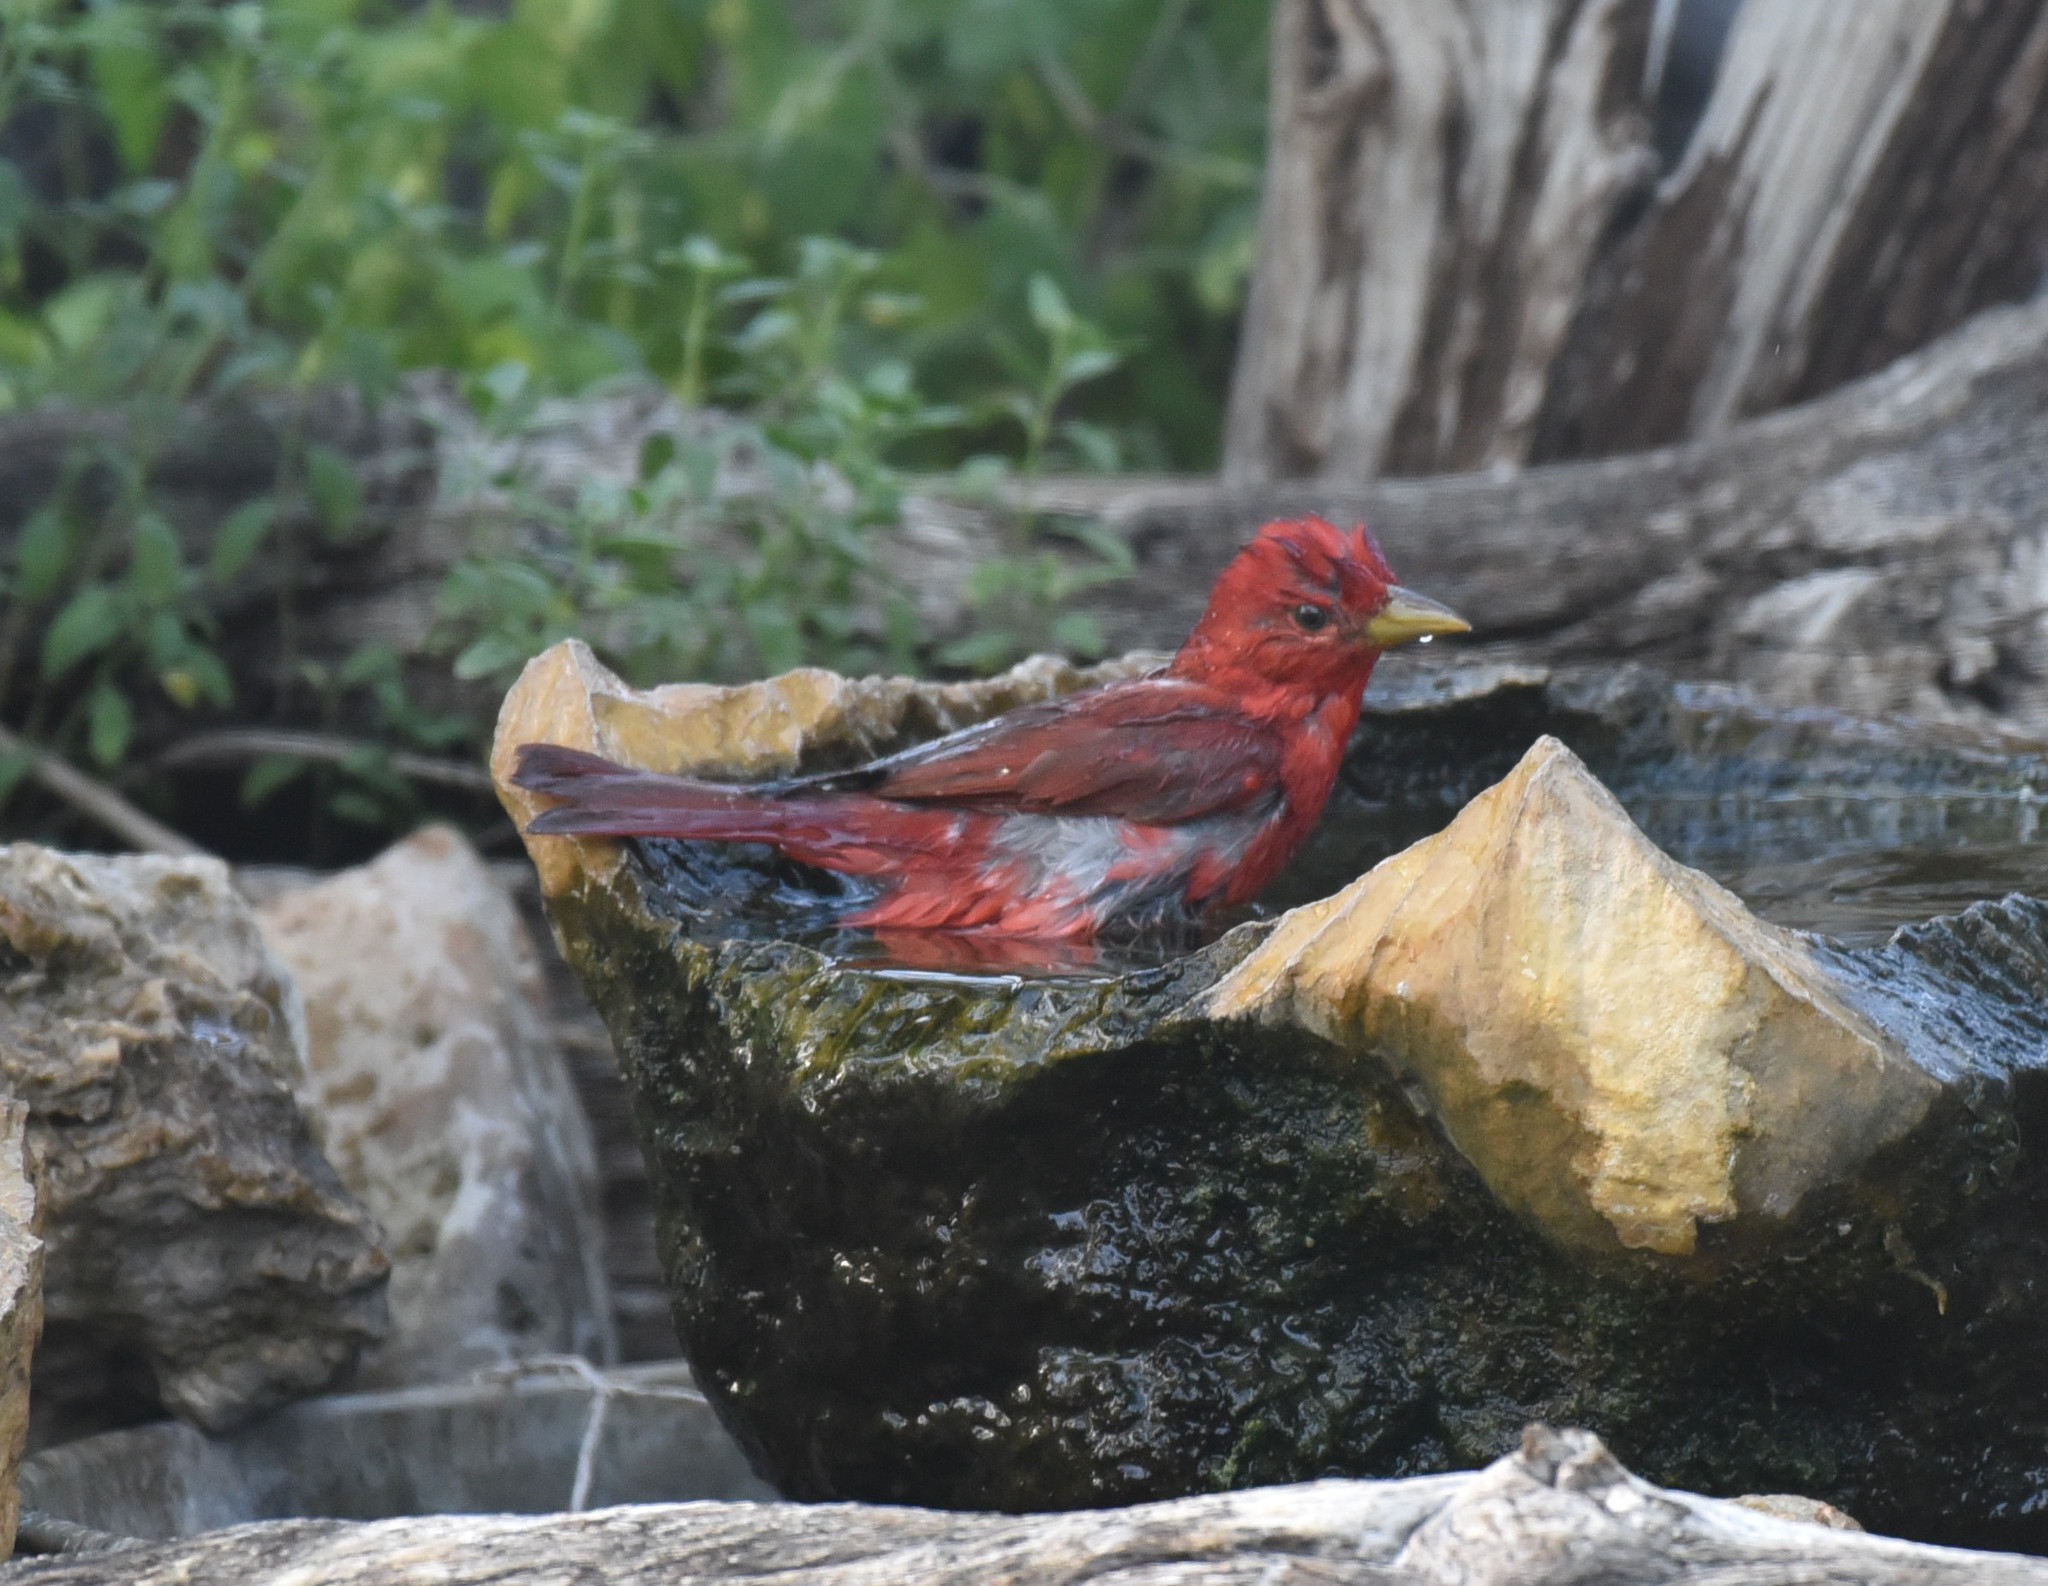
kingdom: Animalia
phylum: Chordata
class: Aves
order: Passeriformes
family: Cardinalidae
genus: Piranga
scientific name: Piranga rubra
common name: Summer tanager
